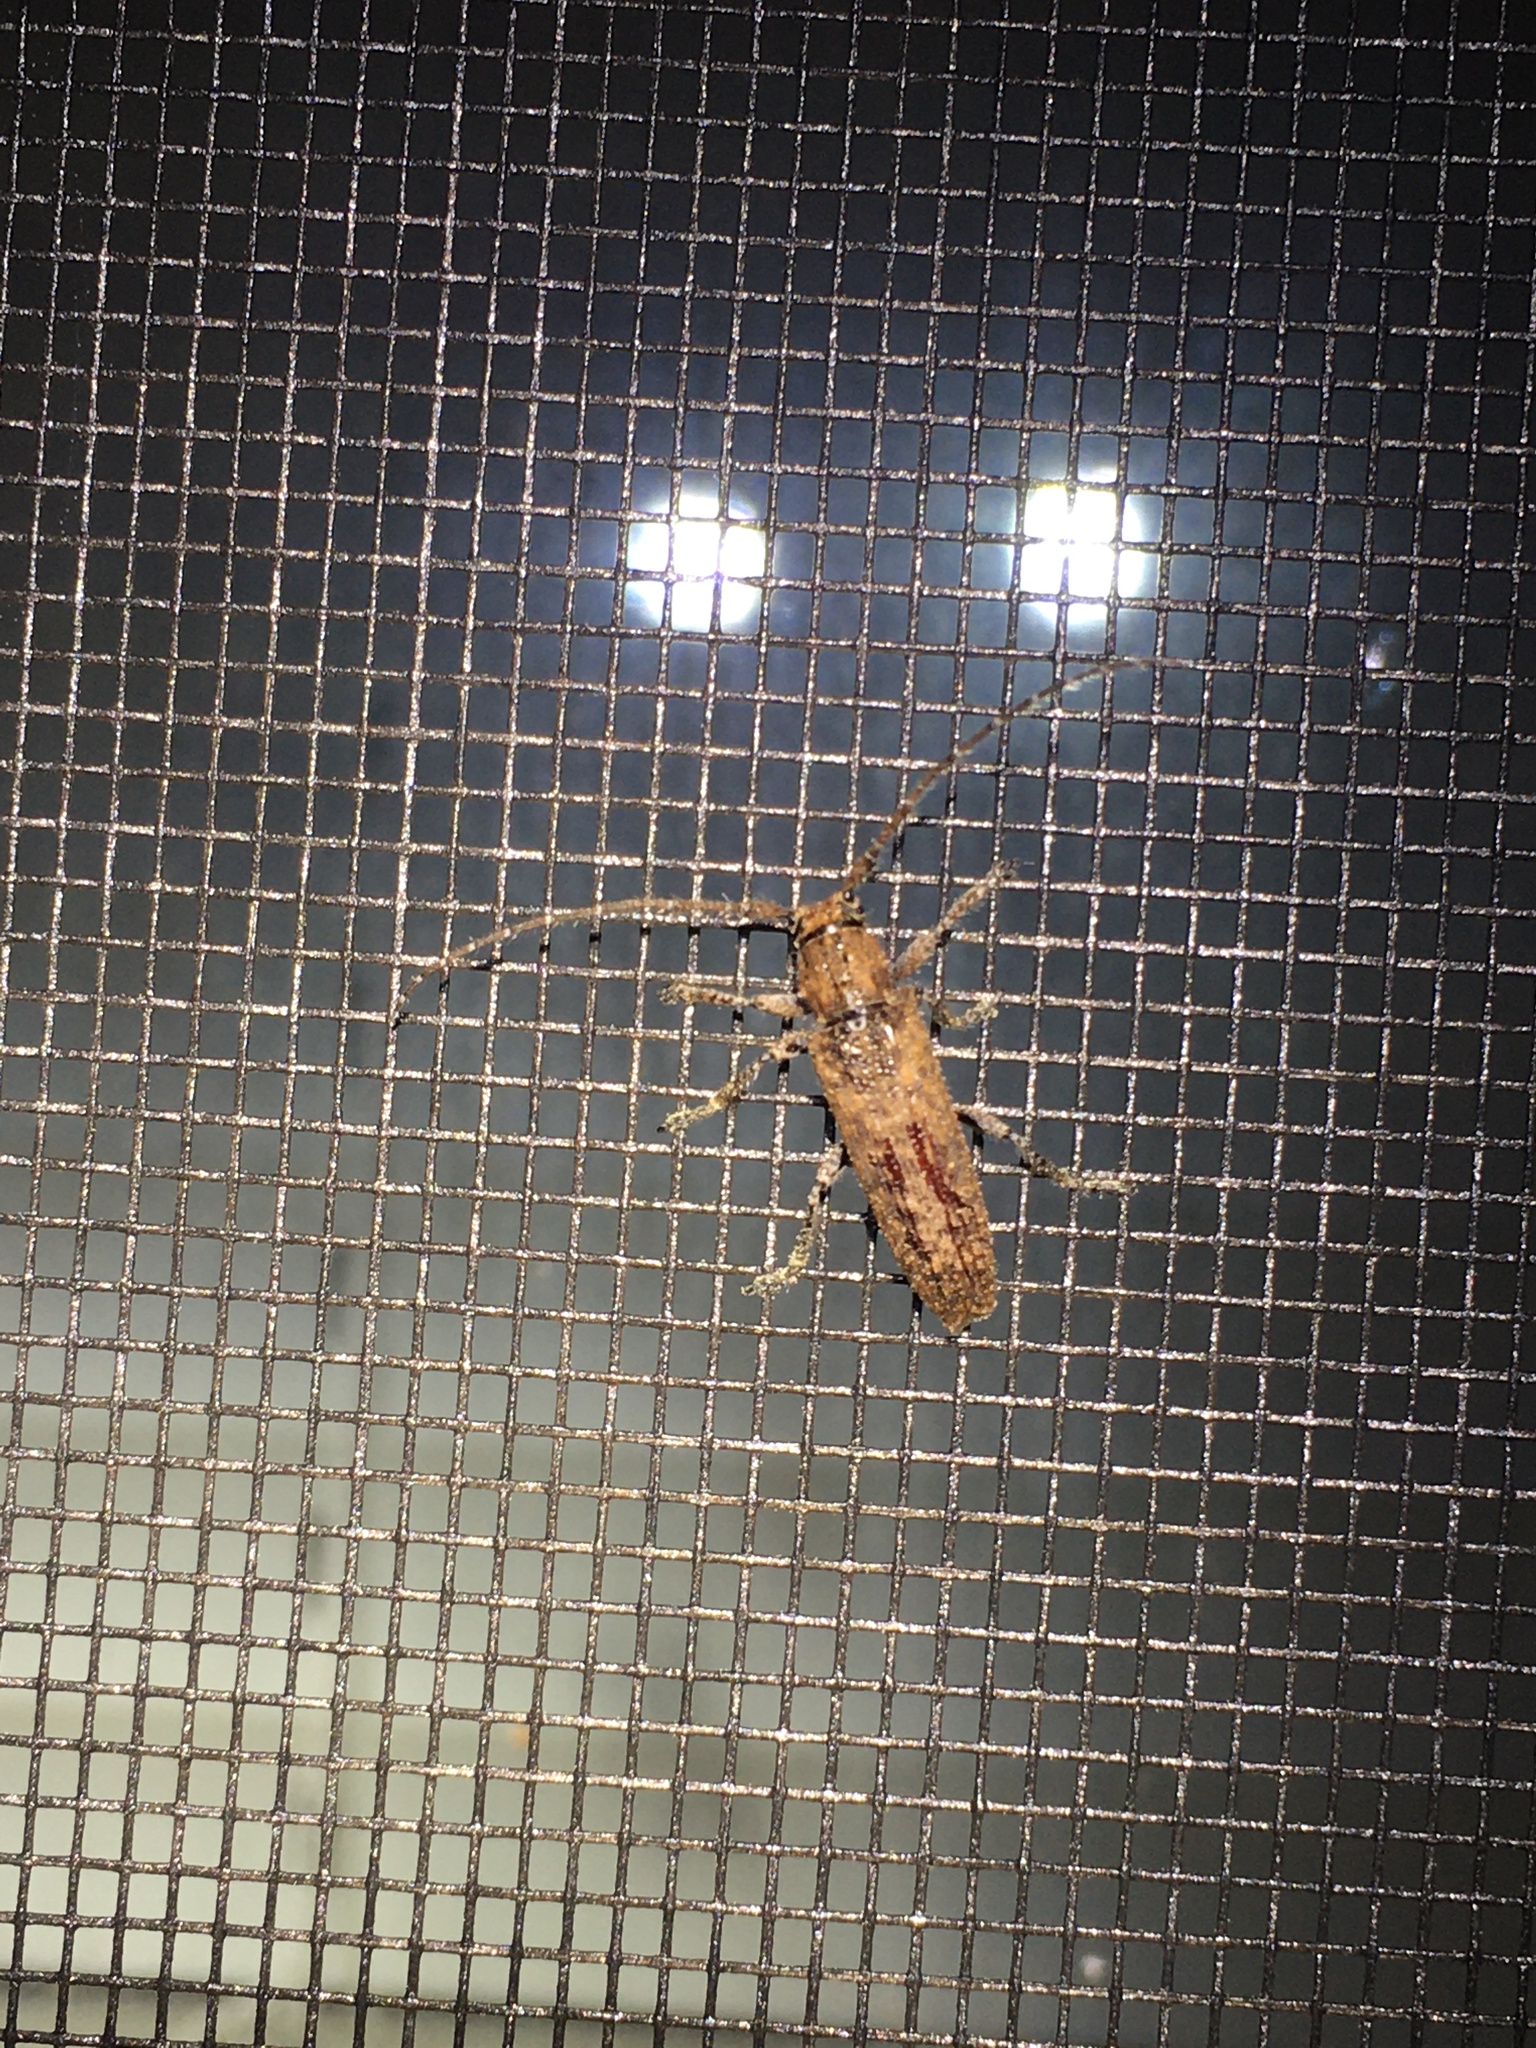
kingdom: Animalia
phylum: Arthropoda
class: Insecta
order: Coleoptera
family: Cerambycidae
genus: Ataxia
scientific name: Ataxia crypta
